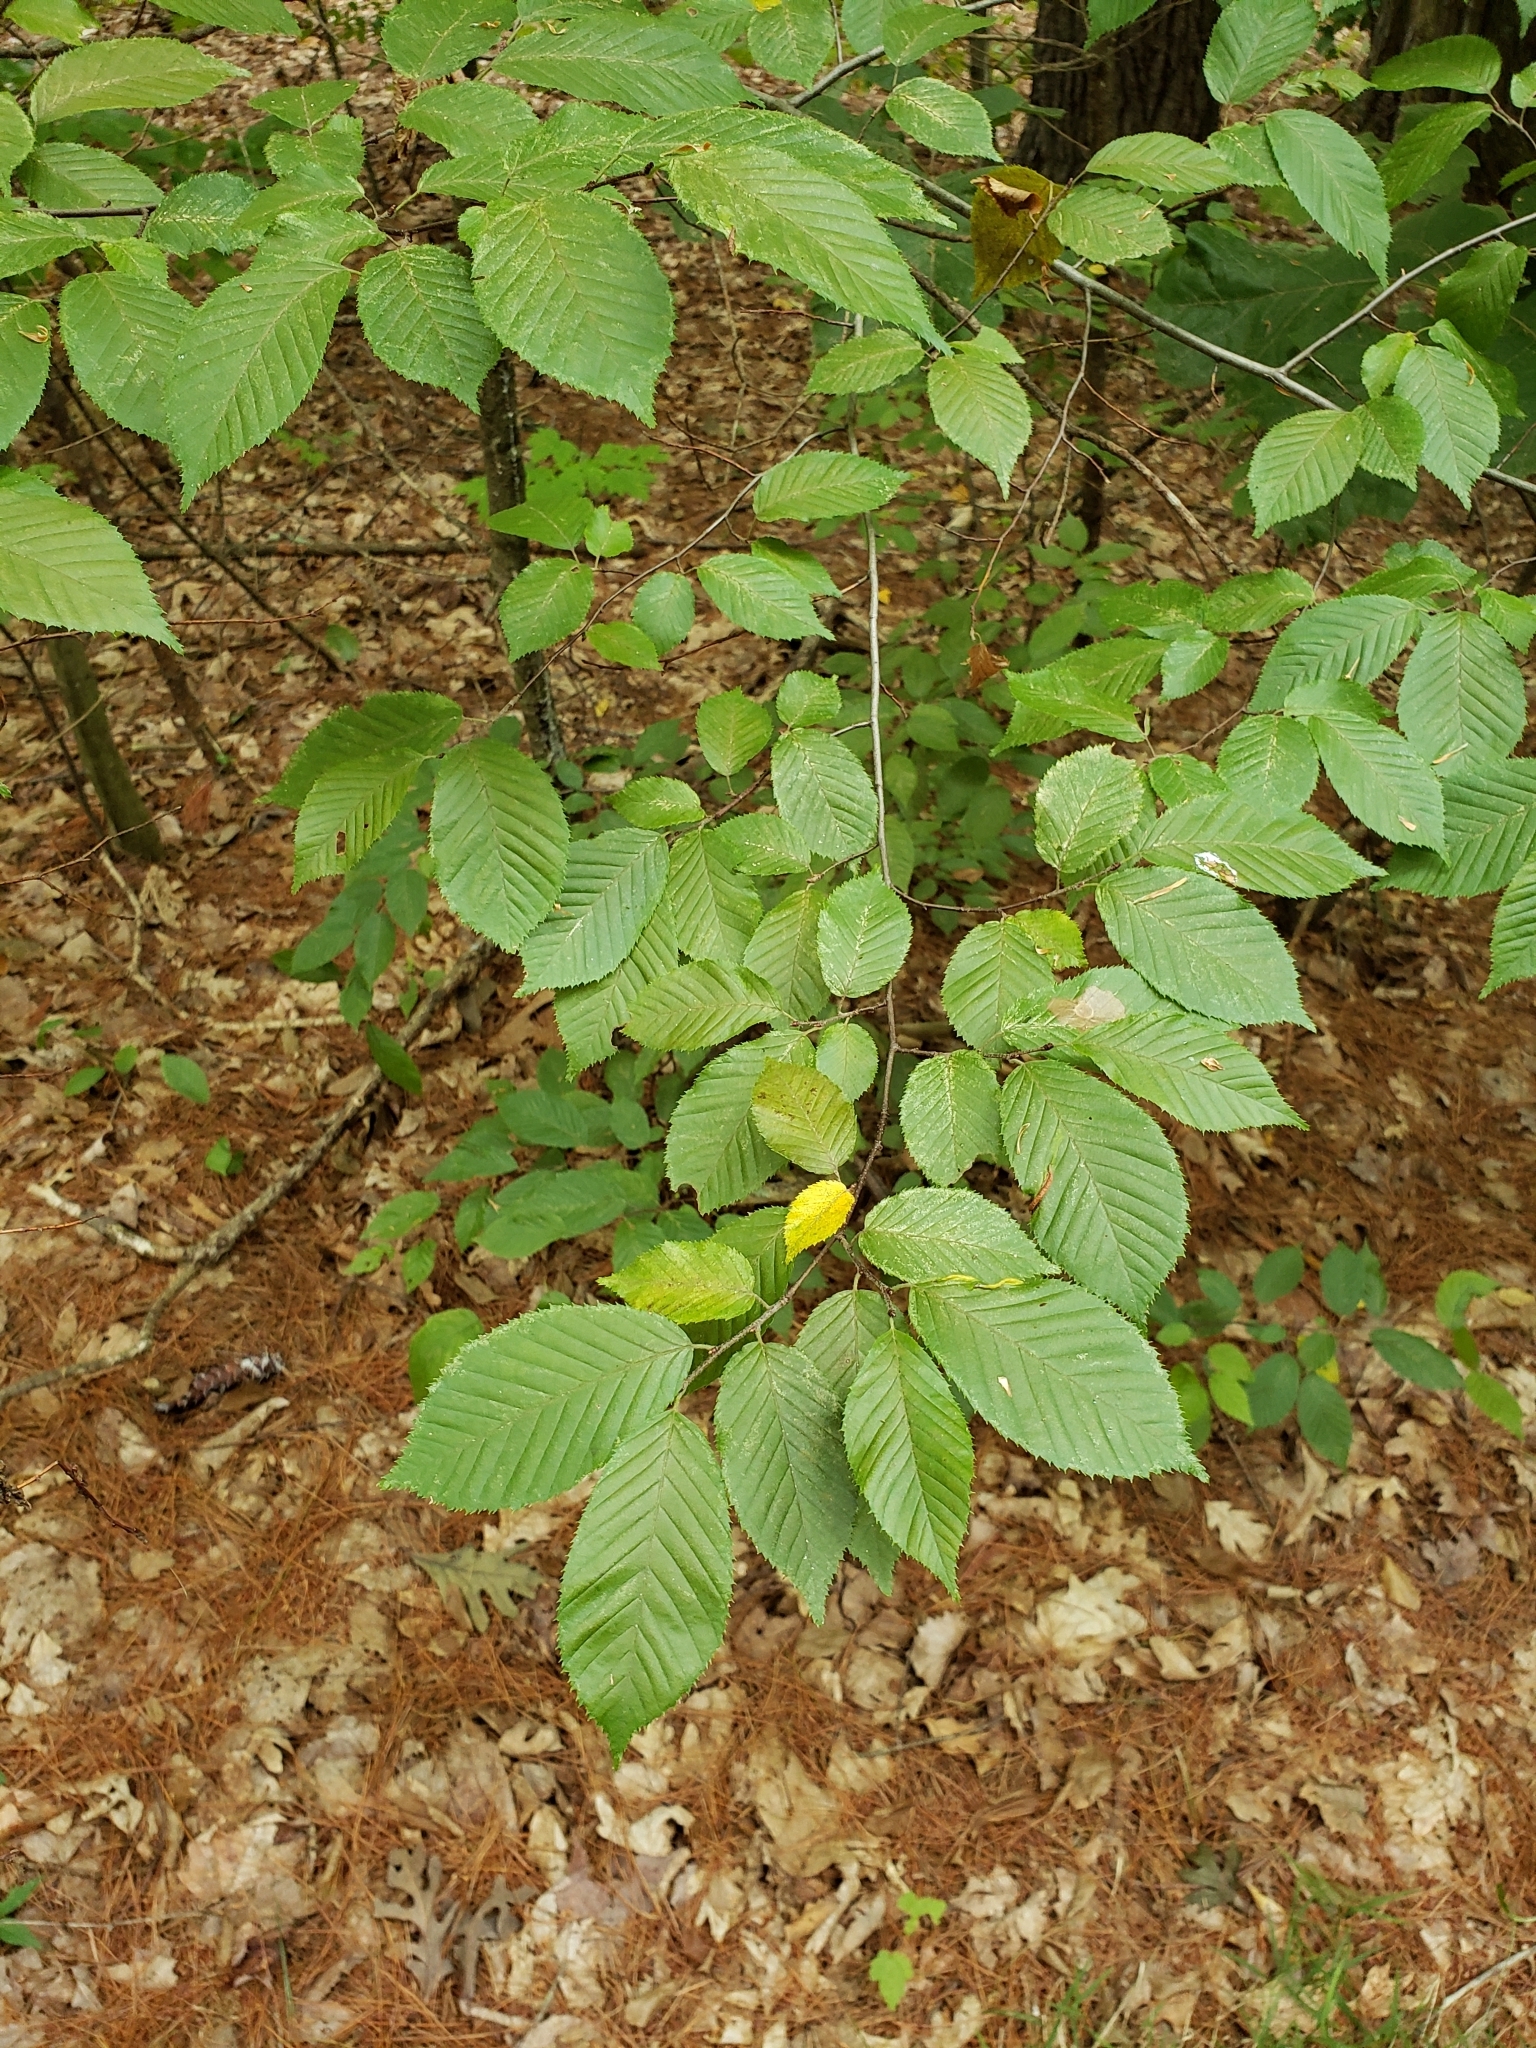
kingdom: Plantae
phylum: Tracheophyta
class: Magnoliopsida
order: Fagales
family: Fagaceae
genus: Fagus
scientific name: Fagus grandifolia
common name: American beech
